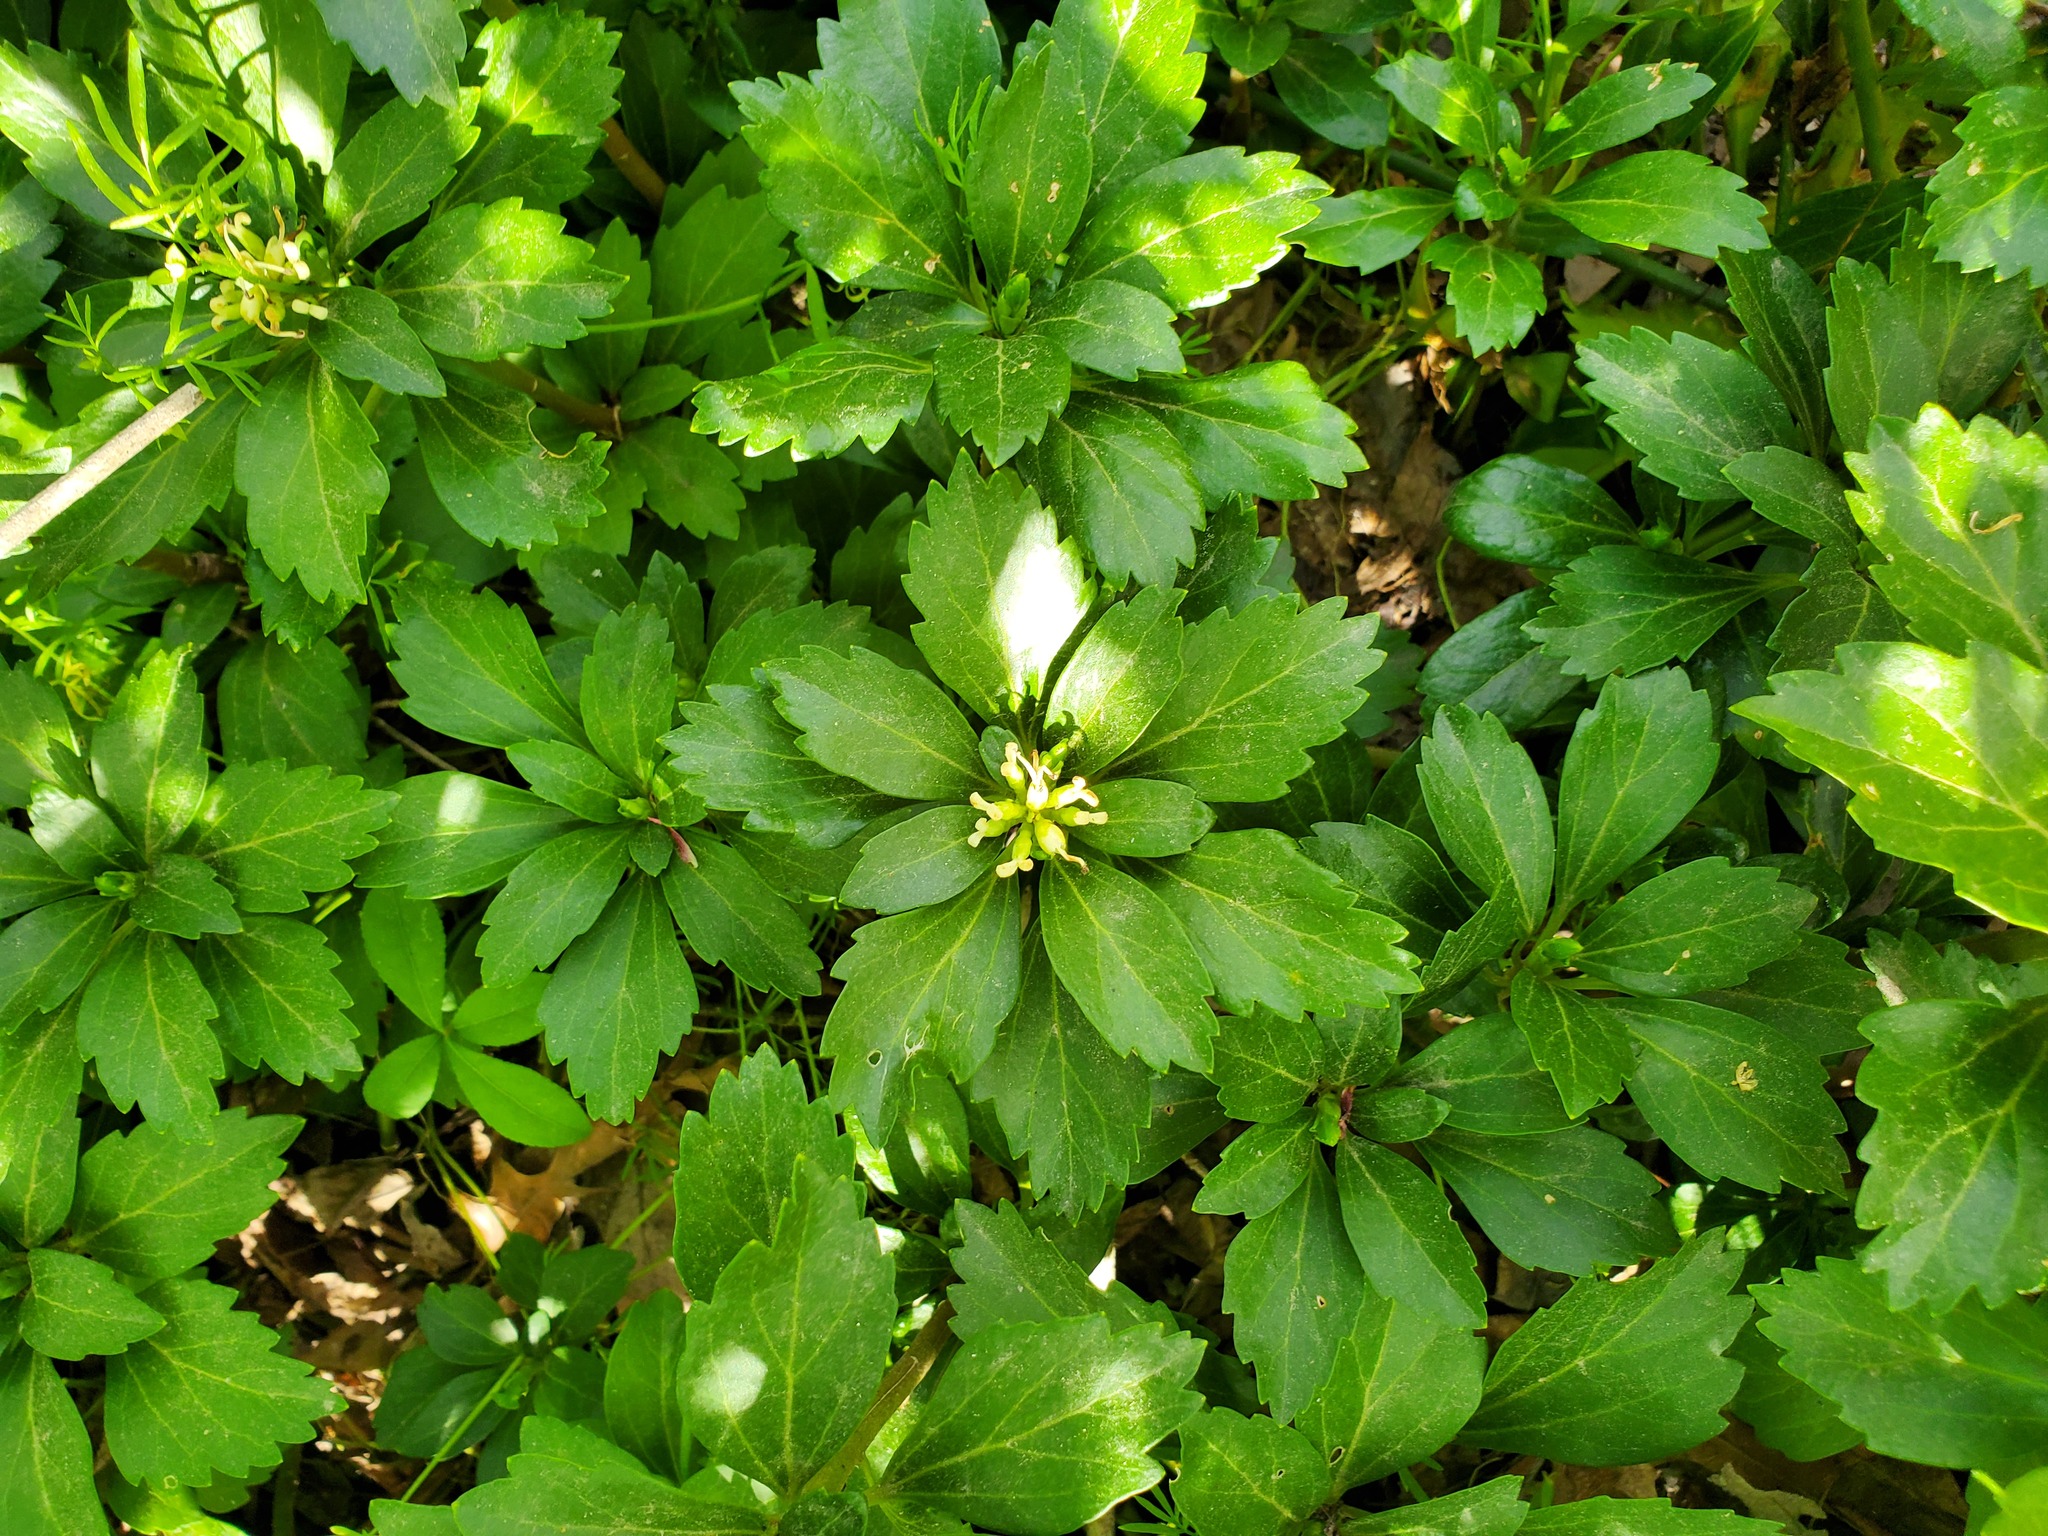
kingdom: Plantae
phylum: Tracheophyta
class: Magnoliopsida
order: Buxales
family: Buxaceae
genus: Pachysandra
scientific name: Pachysandra terminalis
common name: Japanese pachysandra
